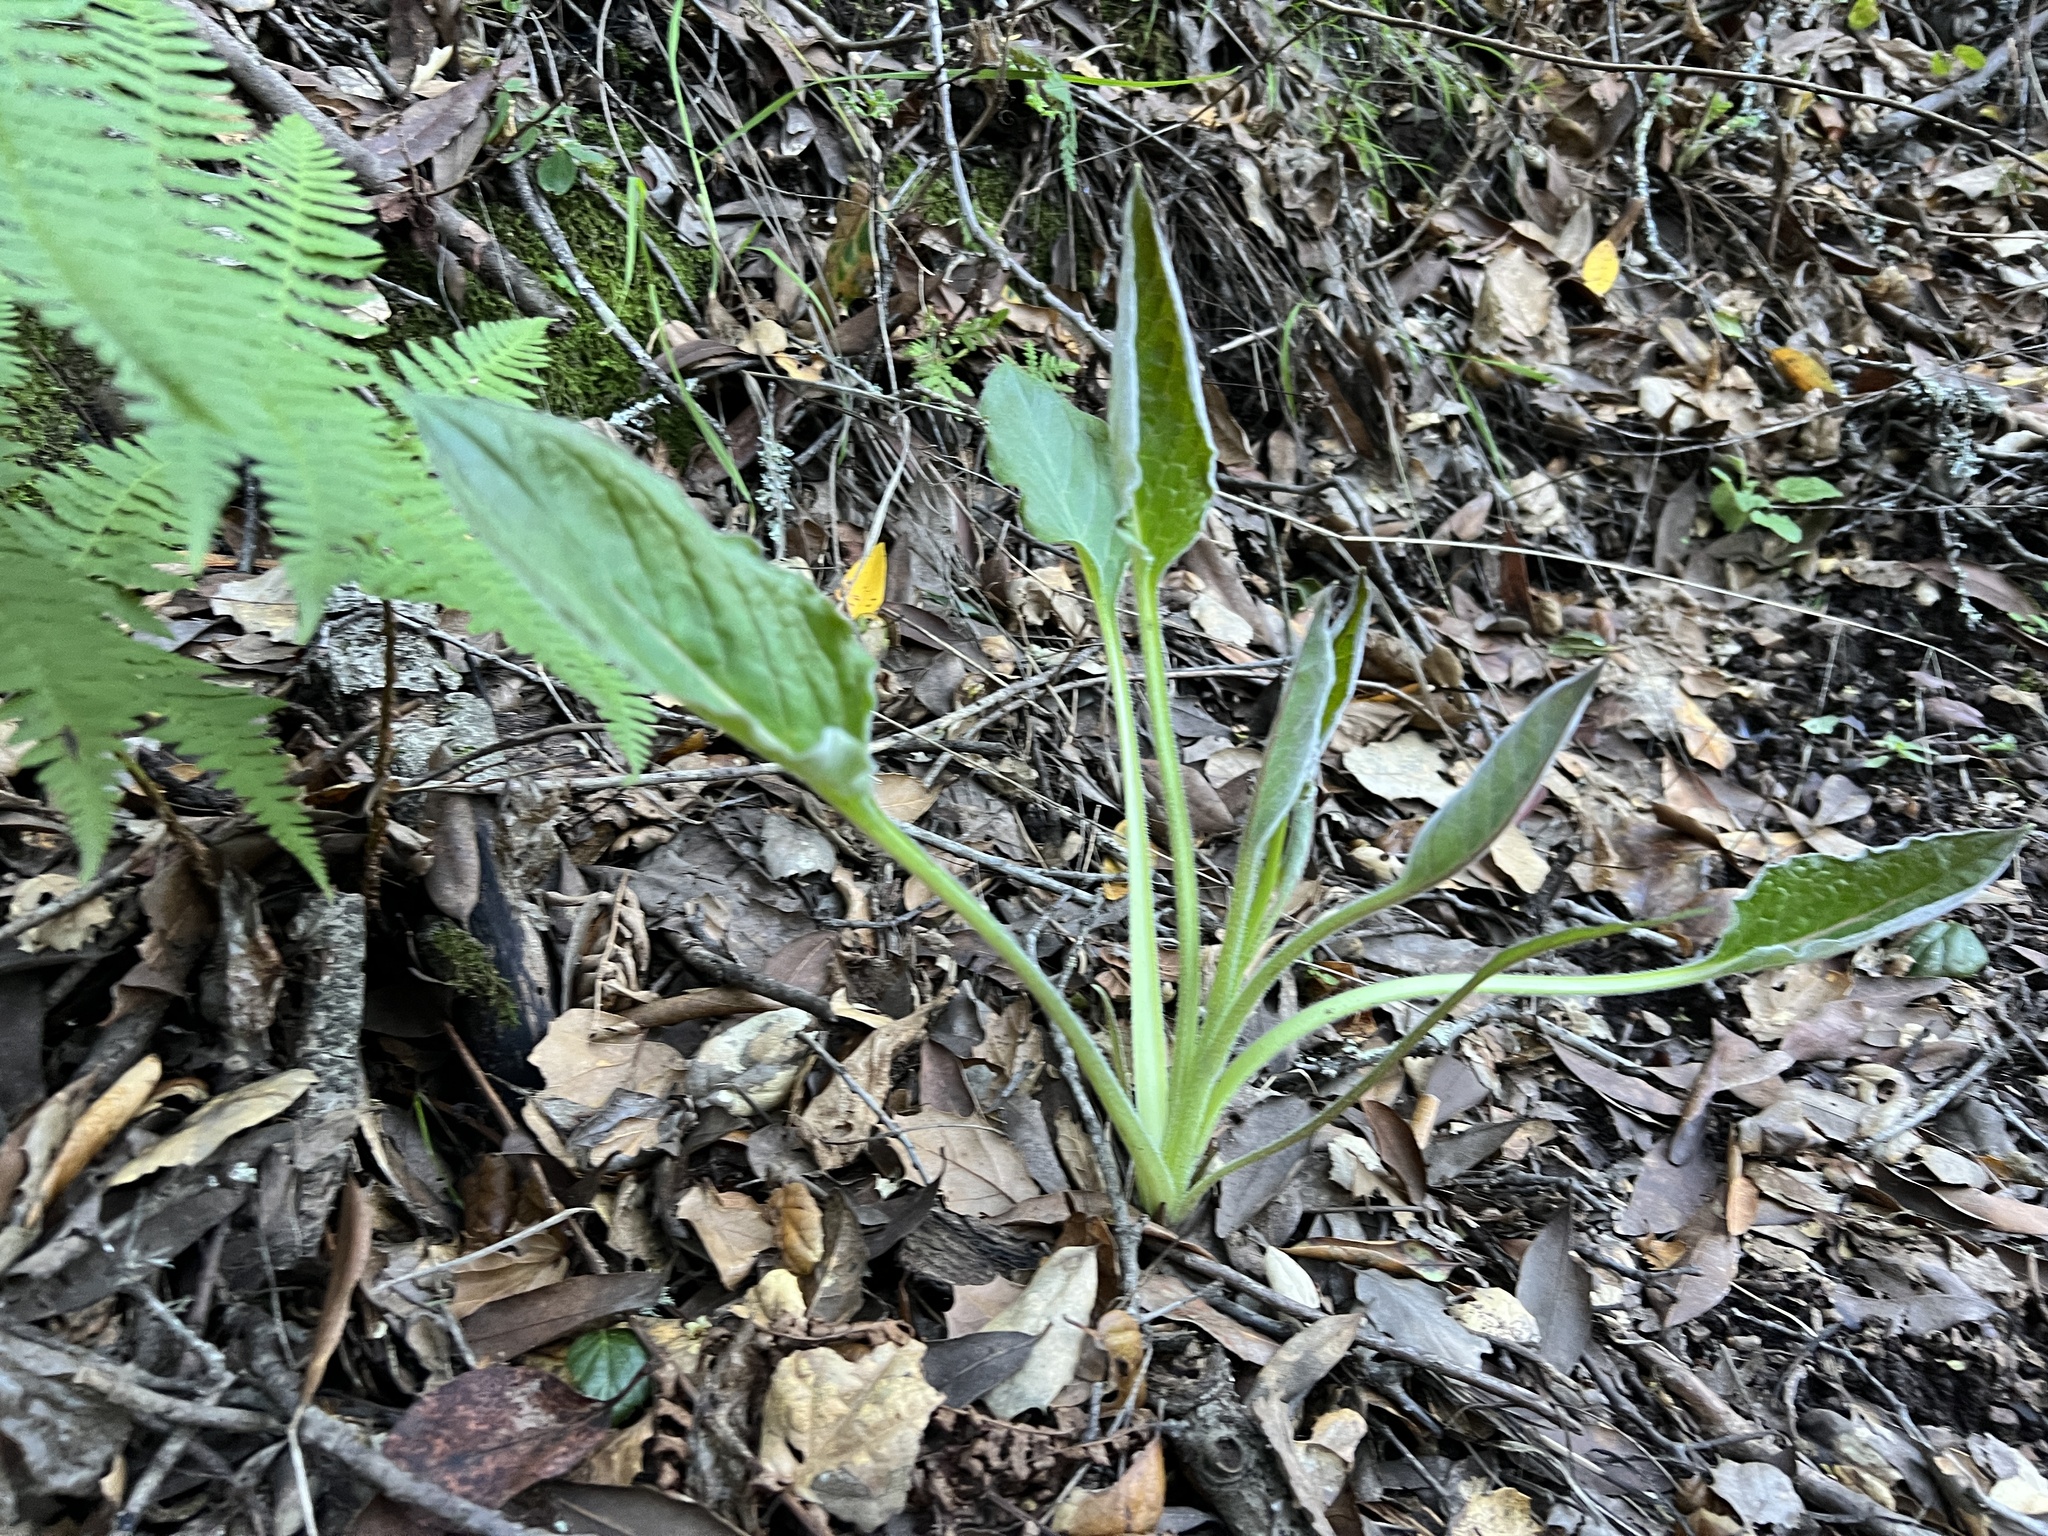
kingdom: Plantae
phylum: Tracheophyta
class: Magnoliopsida
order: Boraginales
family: Boraginaceae
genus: Adelinia
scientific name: Adelinia grande
